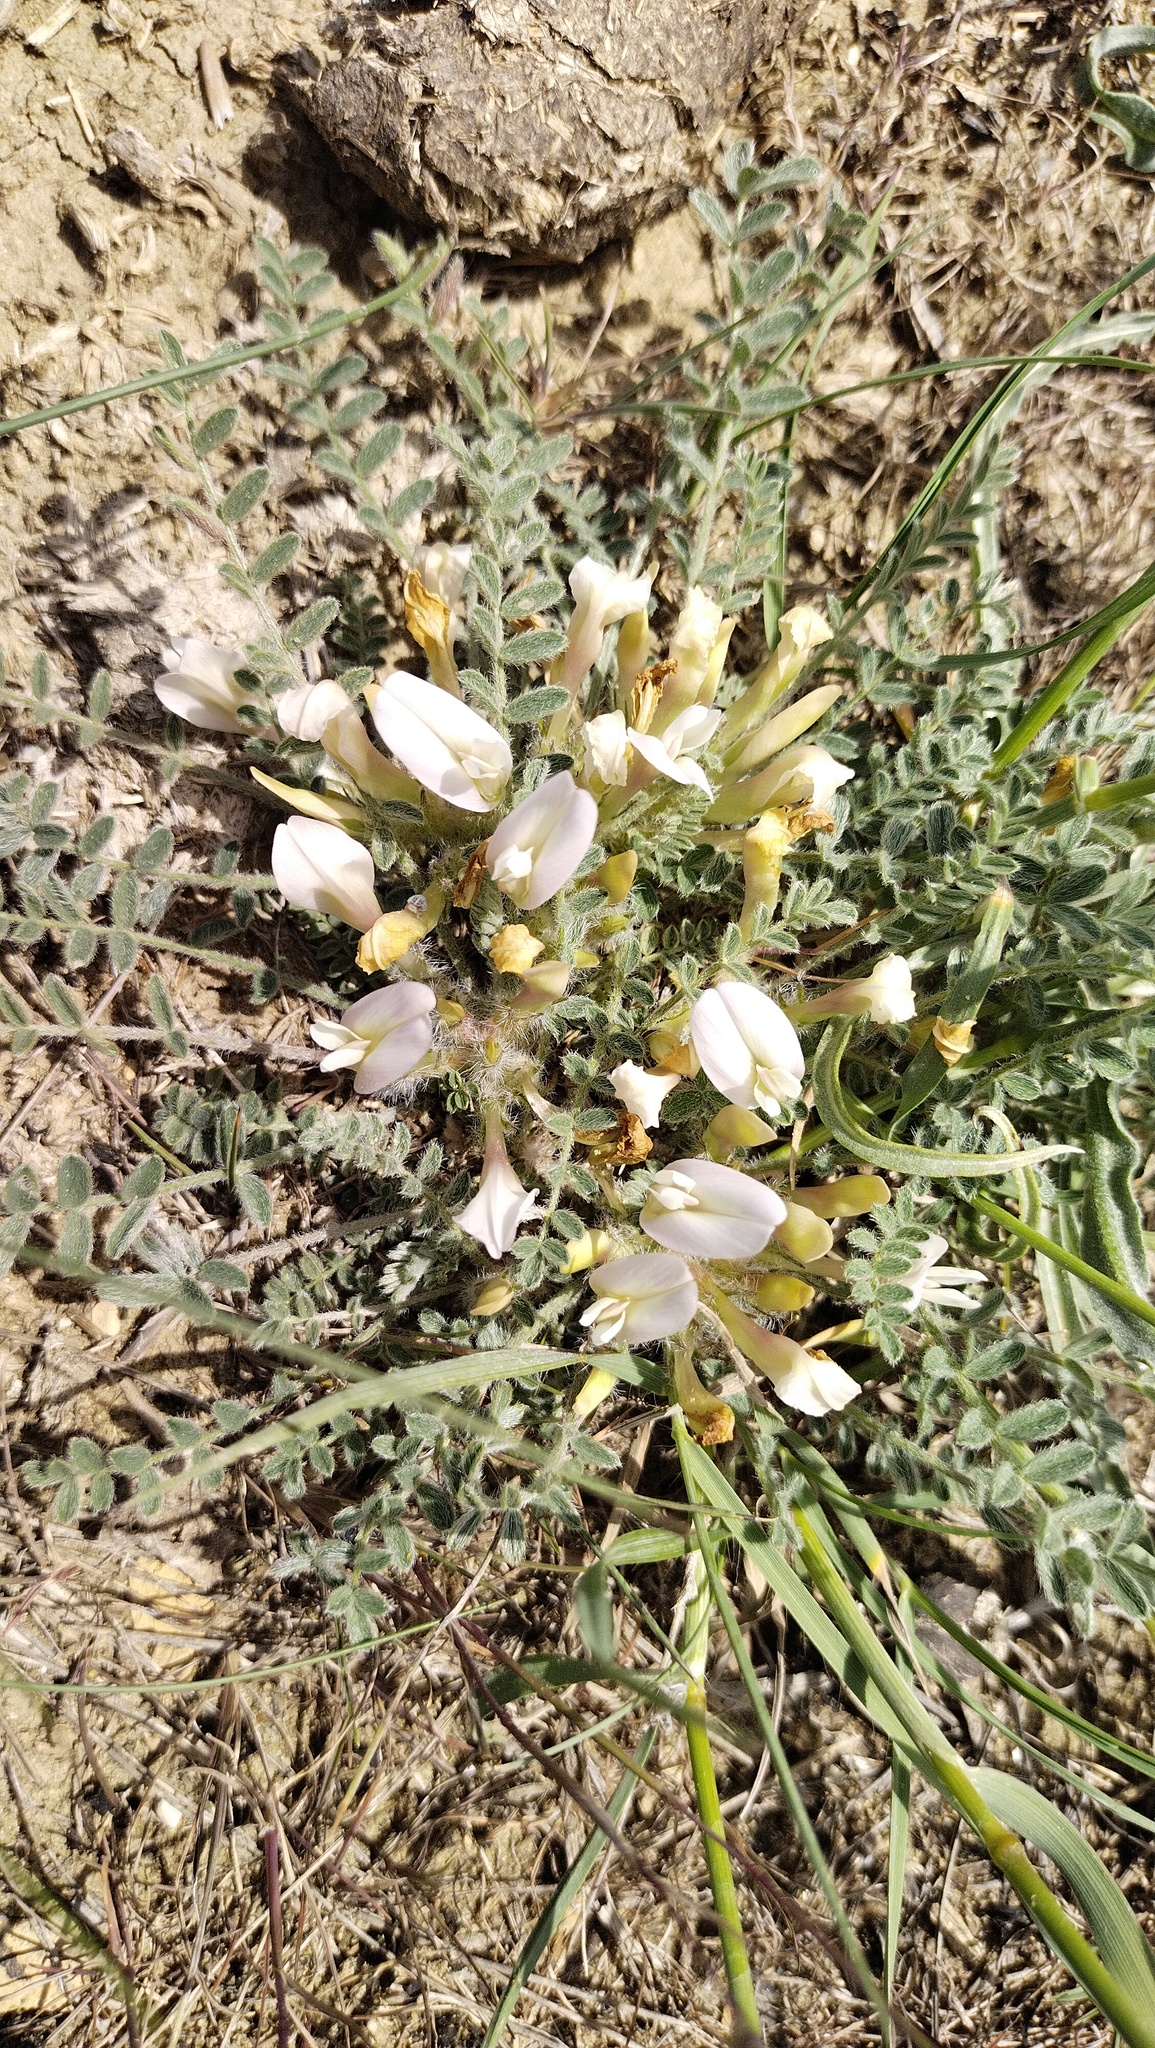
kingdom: Plantae
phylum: Tracheophyta
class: Magnoliopsida
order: Fabales
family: Fabaceae
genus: Astragalus
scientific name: Astragalus dolichophyllus
